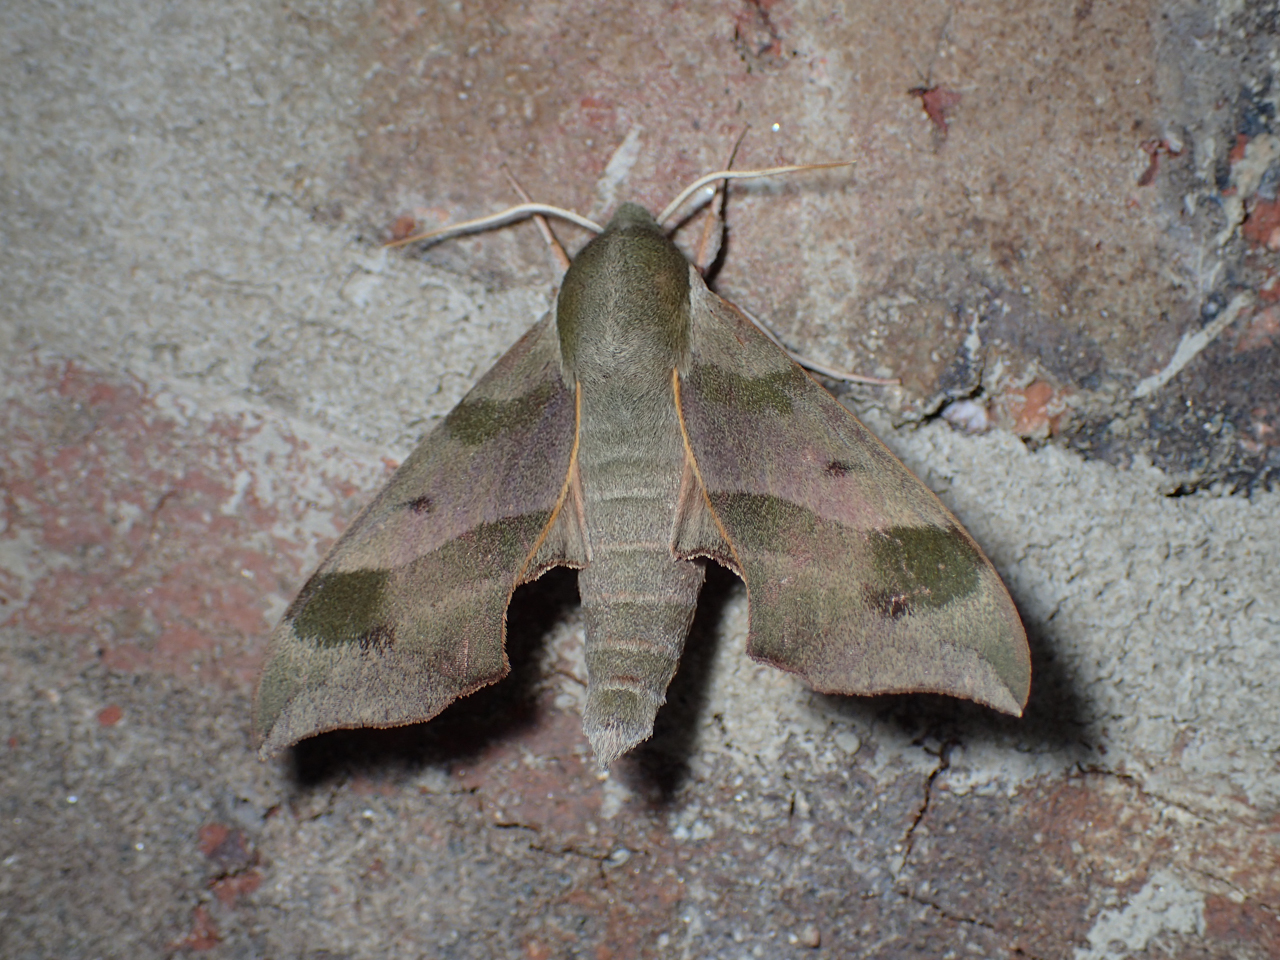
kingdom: Animalia
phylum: Arthropoda
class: Insecta
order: Lepidoptera
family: Sphingidae
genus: Darapsa
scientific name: Darapsa myron
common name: Hog sphinx
